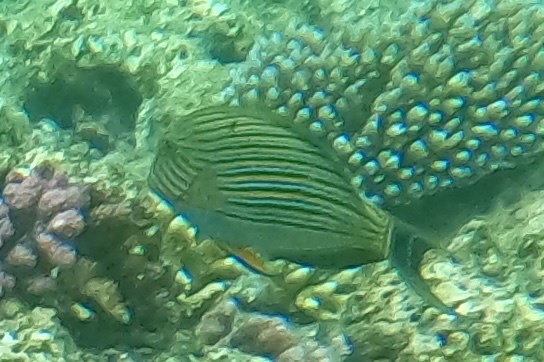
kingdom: Animalia
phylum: Chordata
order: Perciformes
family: Acanthuridae
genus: Acanthurus
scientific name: Acanthurus lineatus
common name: Striped surgeonfish
